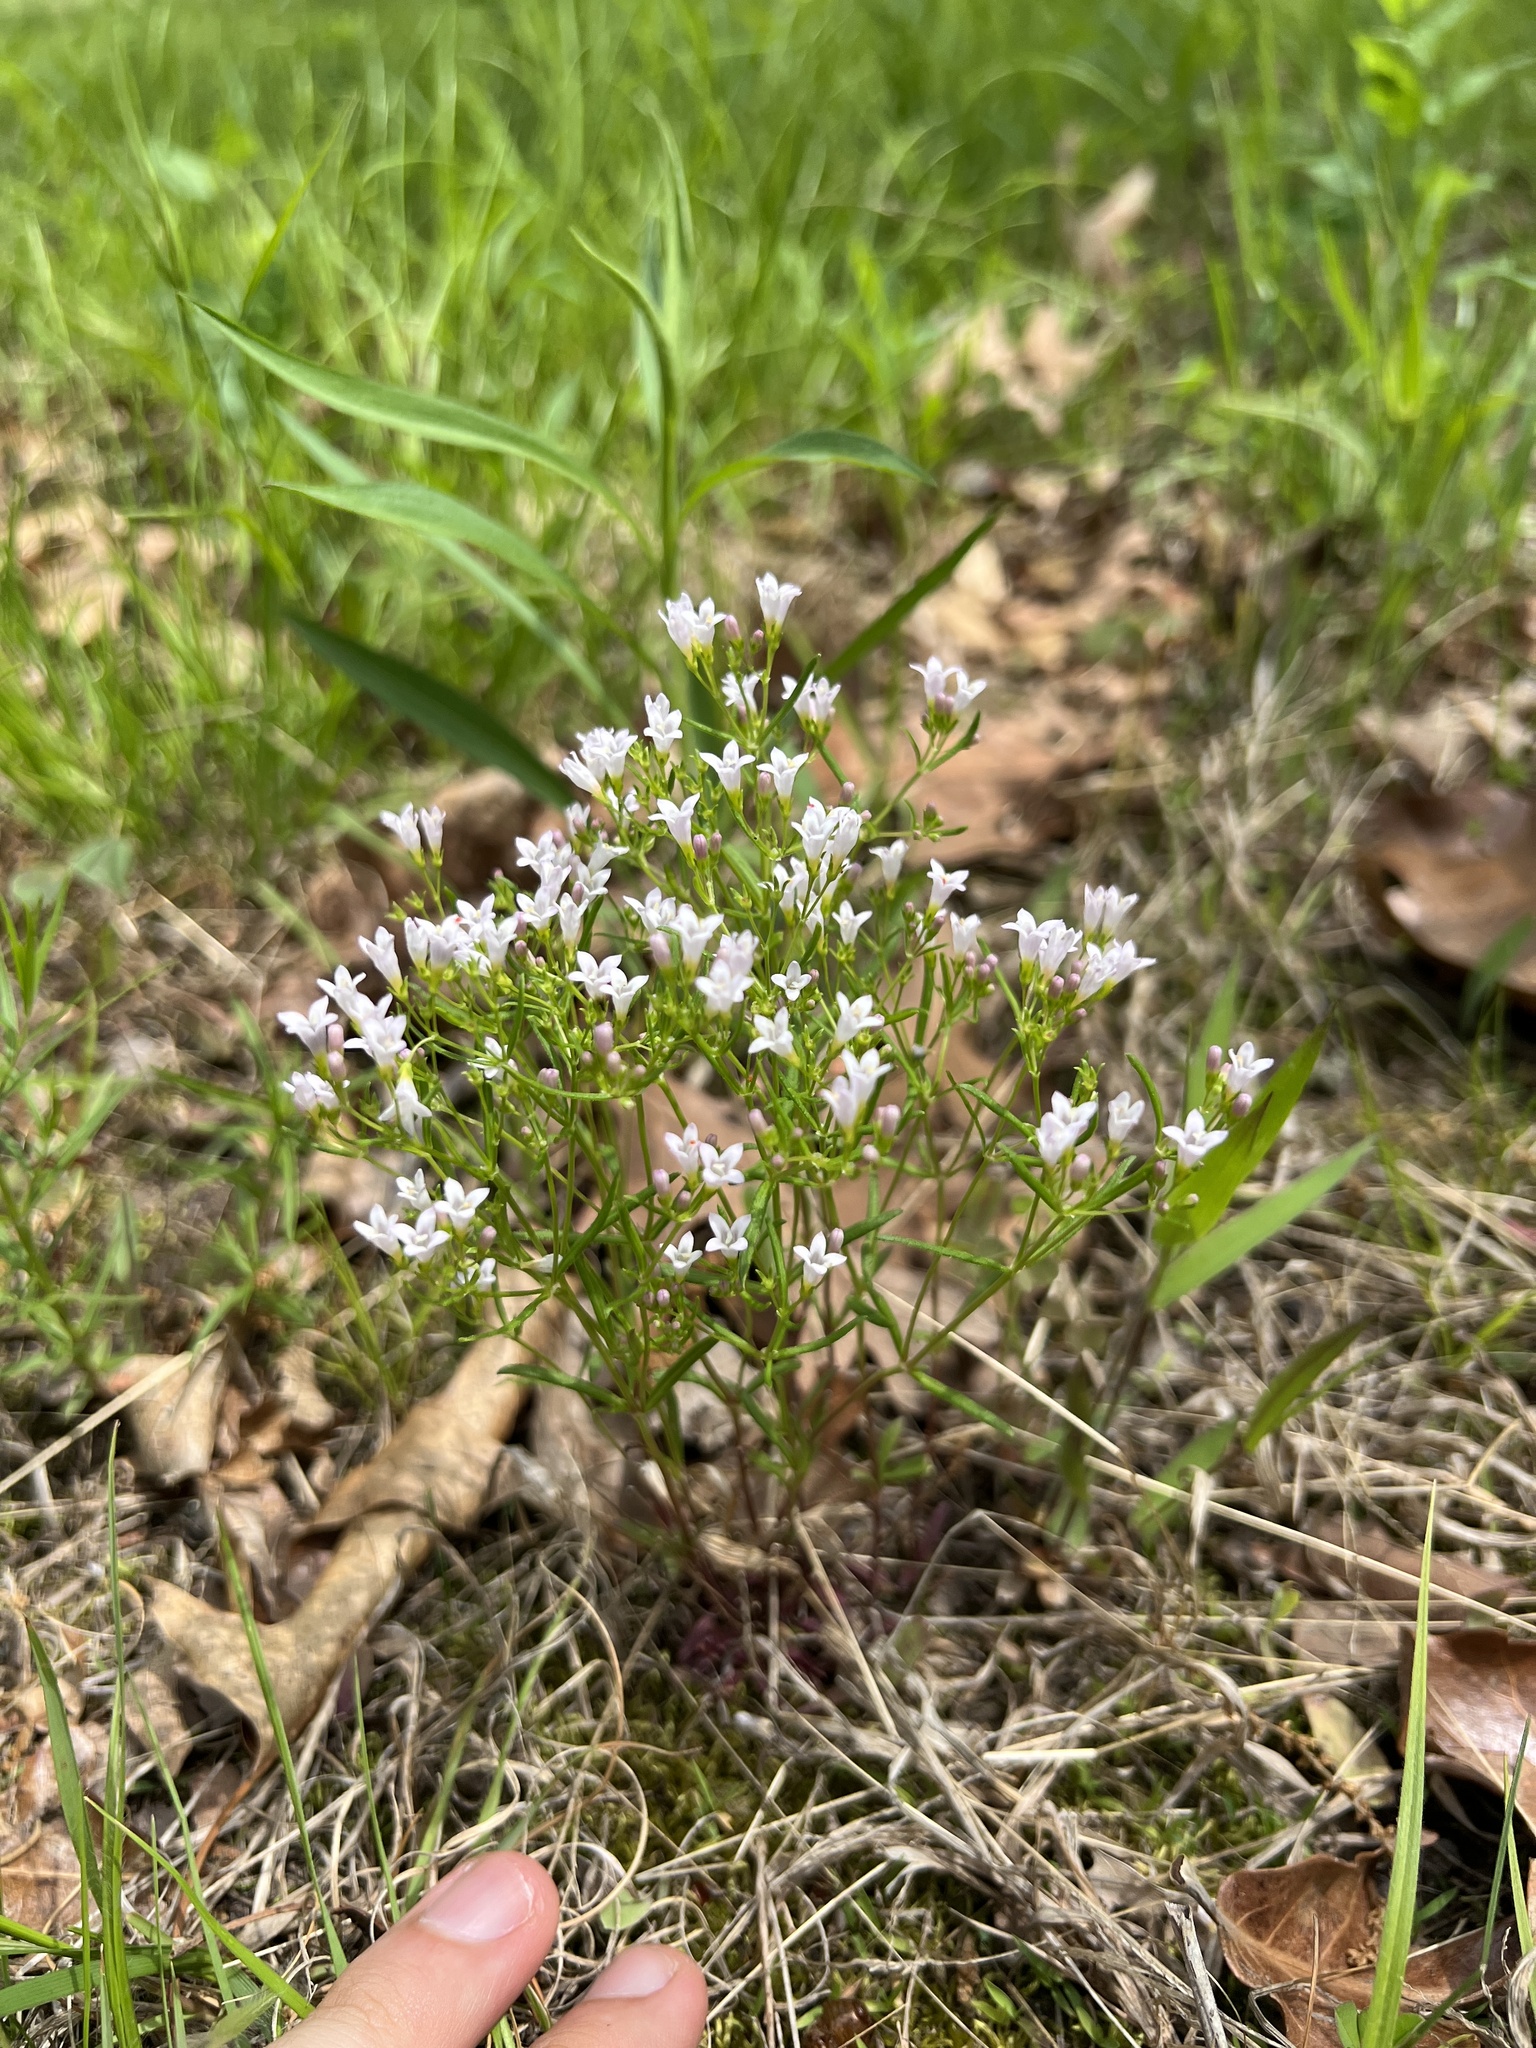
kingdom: Plantae
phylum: Tracheophyta
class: Magnoliopsida
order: Gentianales
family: Rubiaceae
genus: Houstonia
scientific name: Houstonia longifolia
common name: Long-leaved bluets
